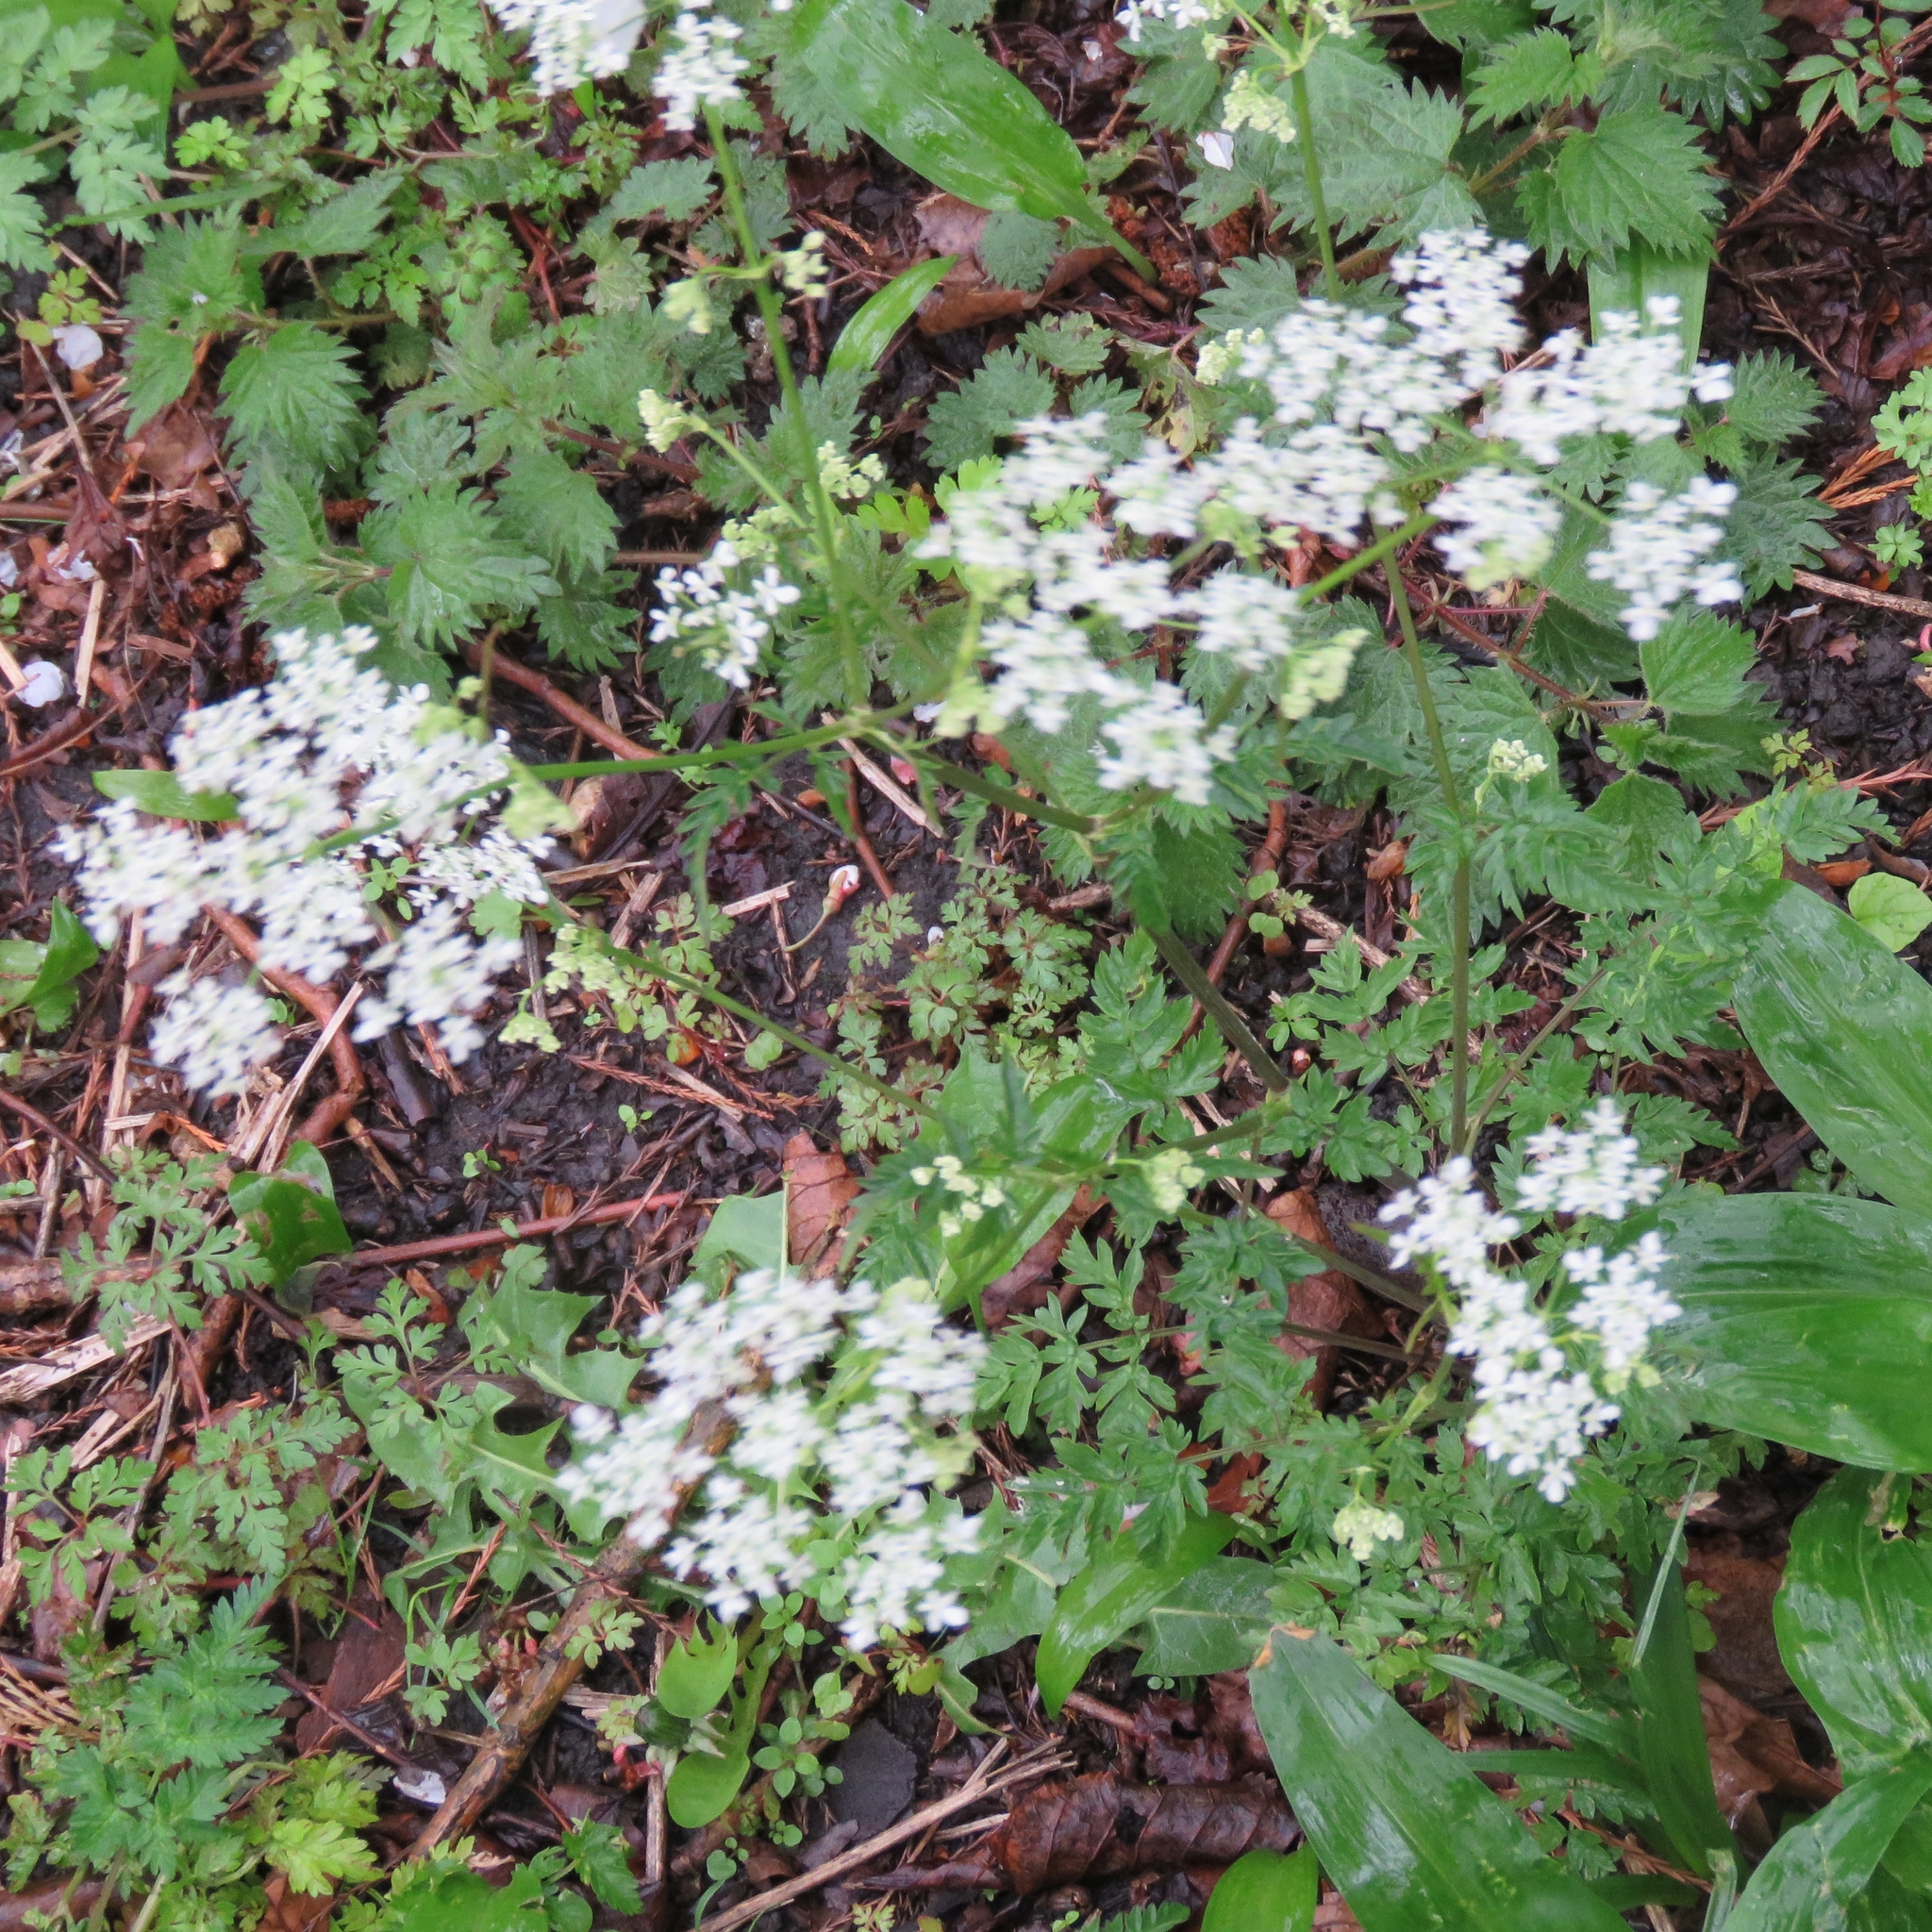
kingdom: Plantae
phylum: Tracheophyta
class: Magnoliopsida
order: Apiales
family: Apiaceae
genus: Anthriscus
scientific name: Anthriscus sylvestris
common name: Cow parsley
